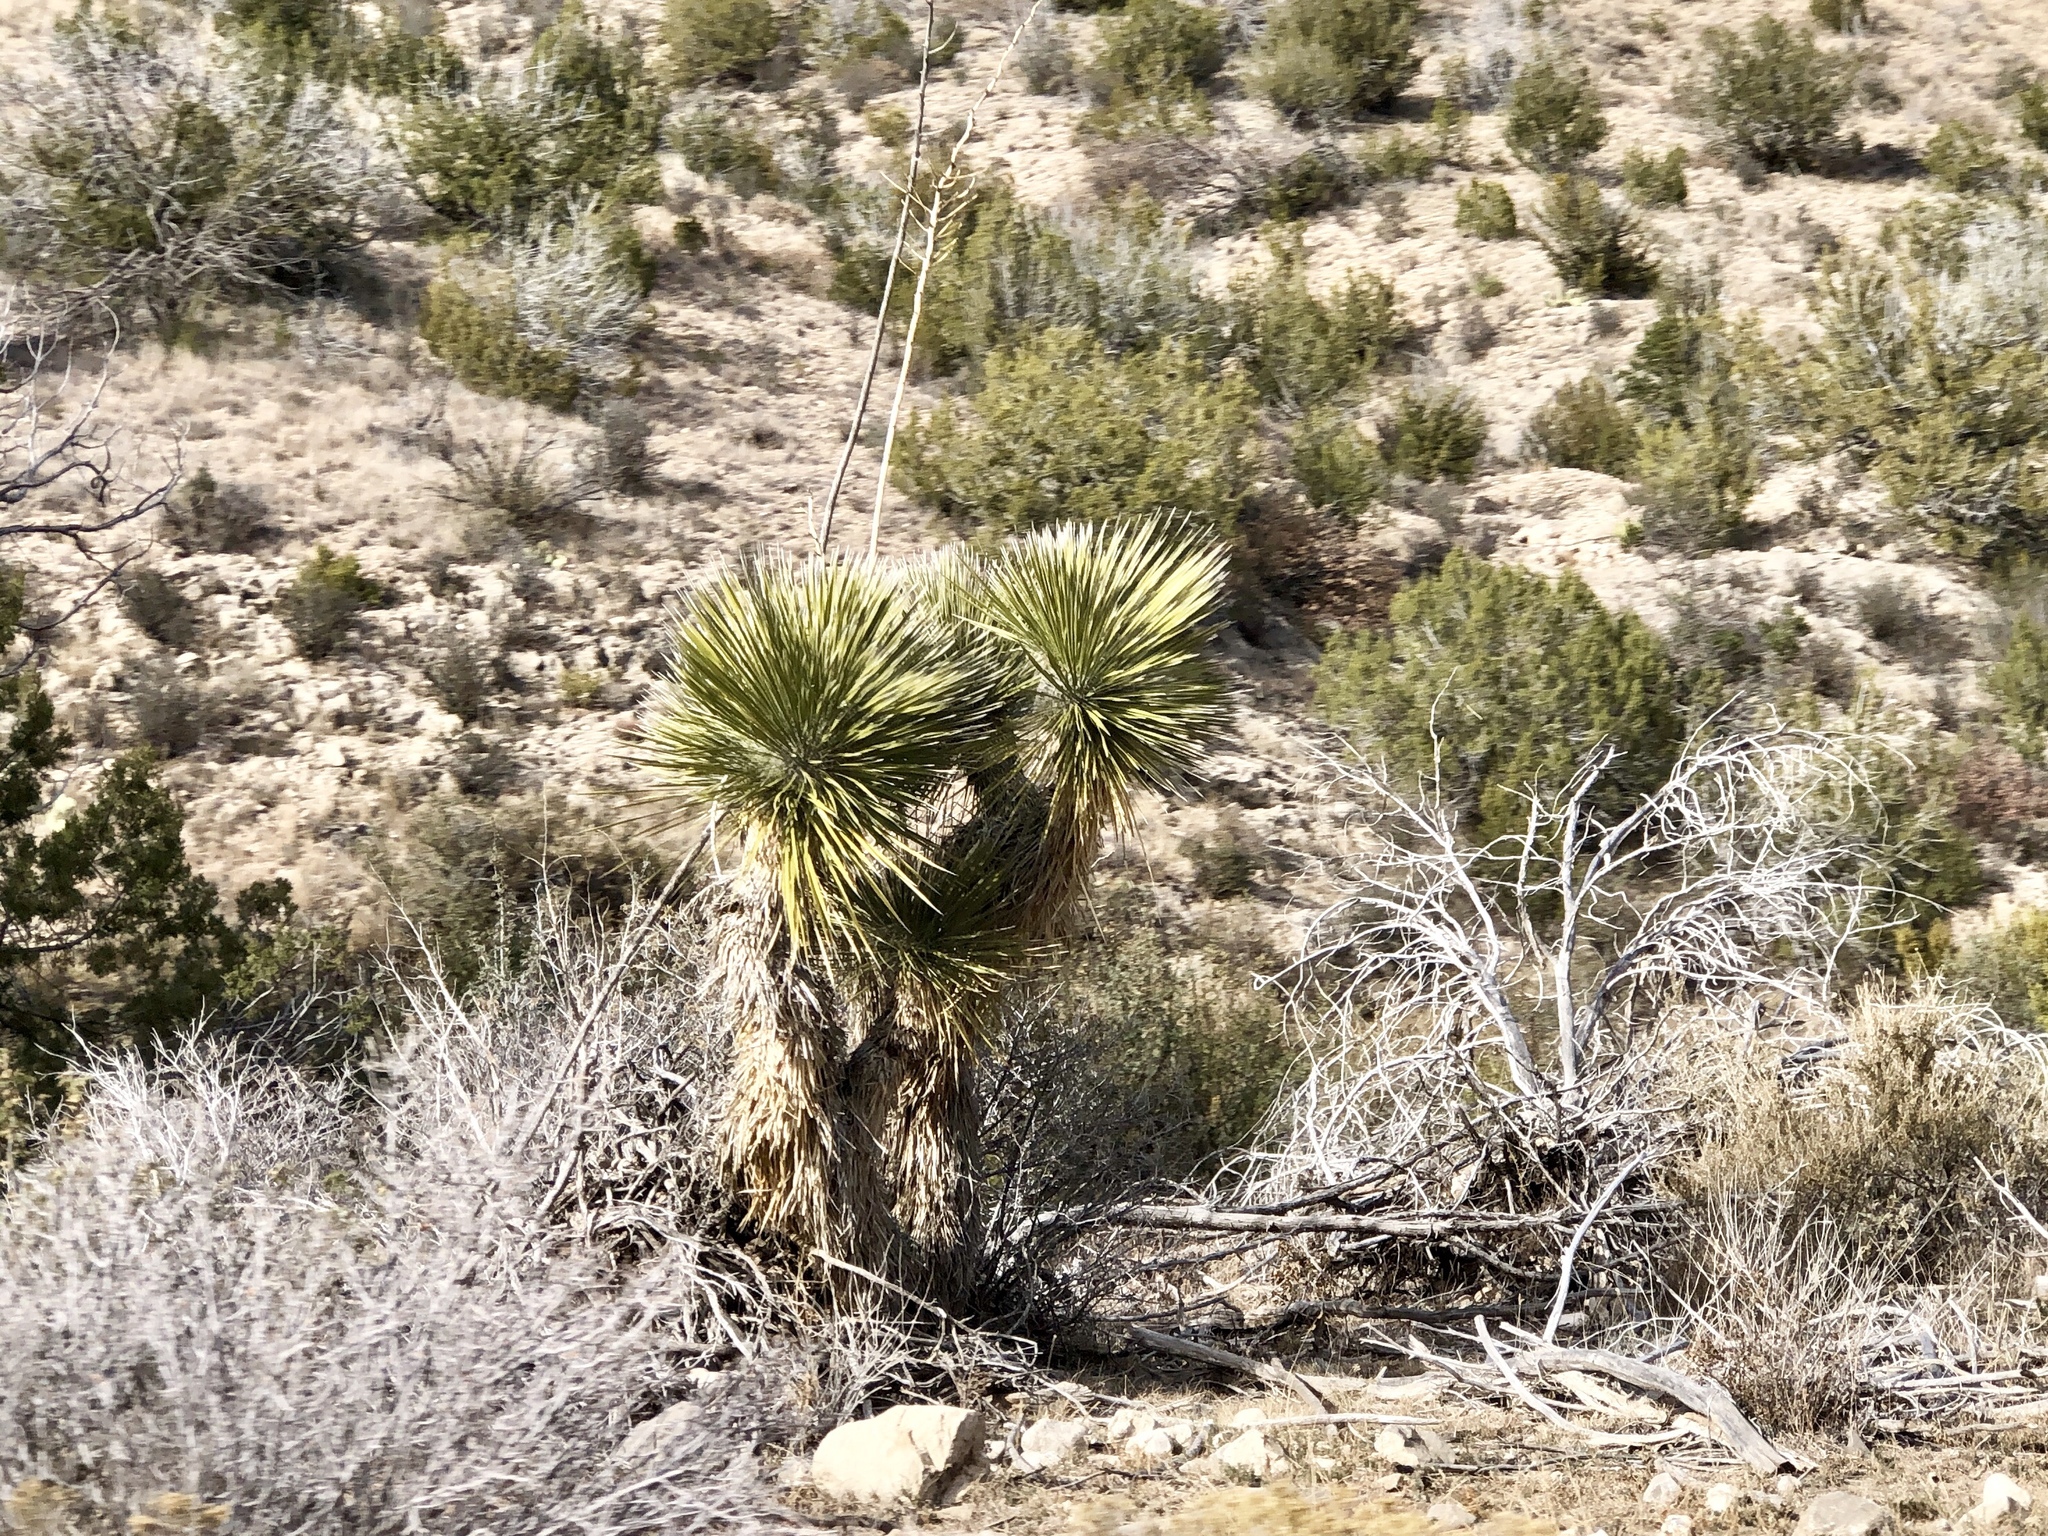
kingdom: Plantae
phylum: Tracheophyta
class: Liliopsida
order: Asparagales
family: Asparagaceae
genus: Yucca
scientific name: Yucca elata
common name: Palmella
